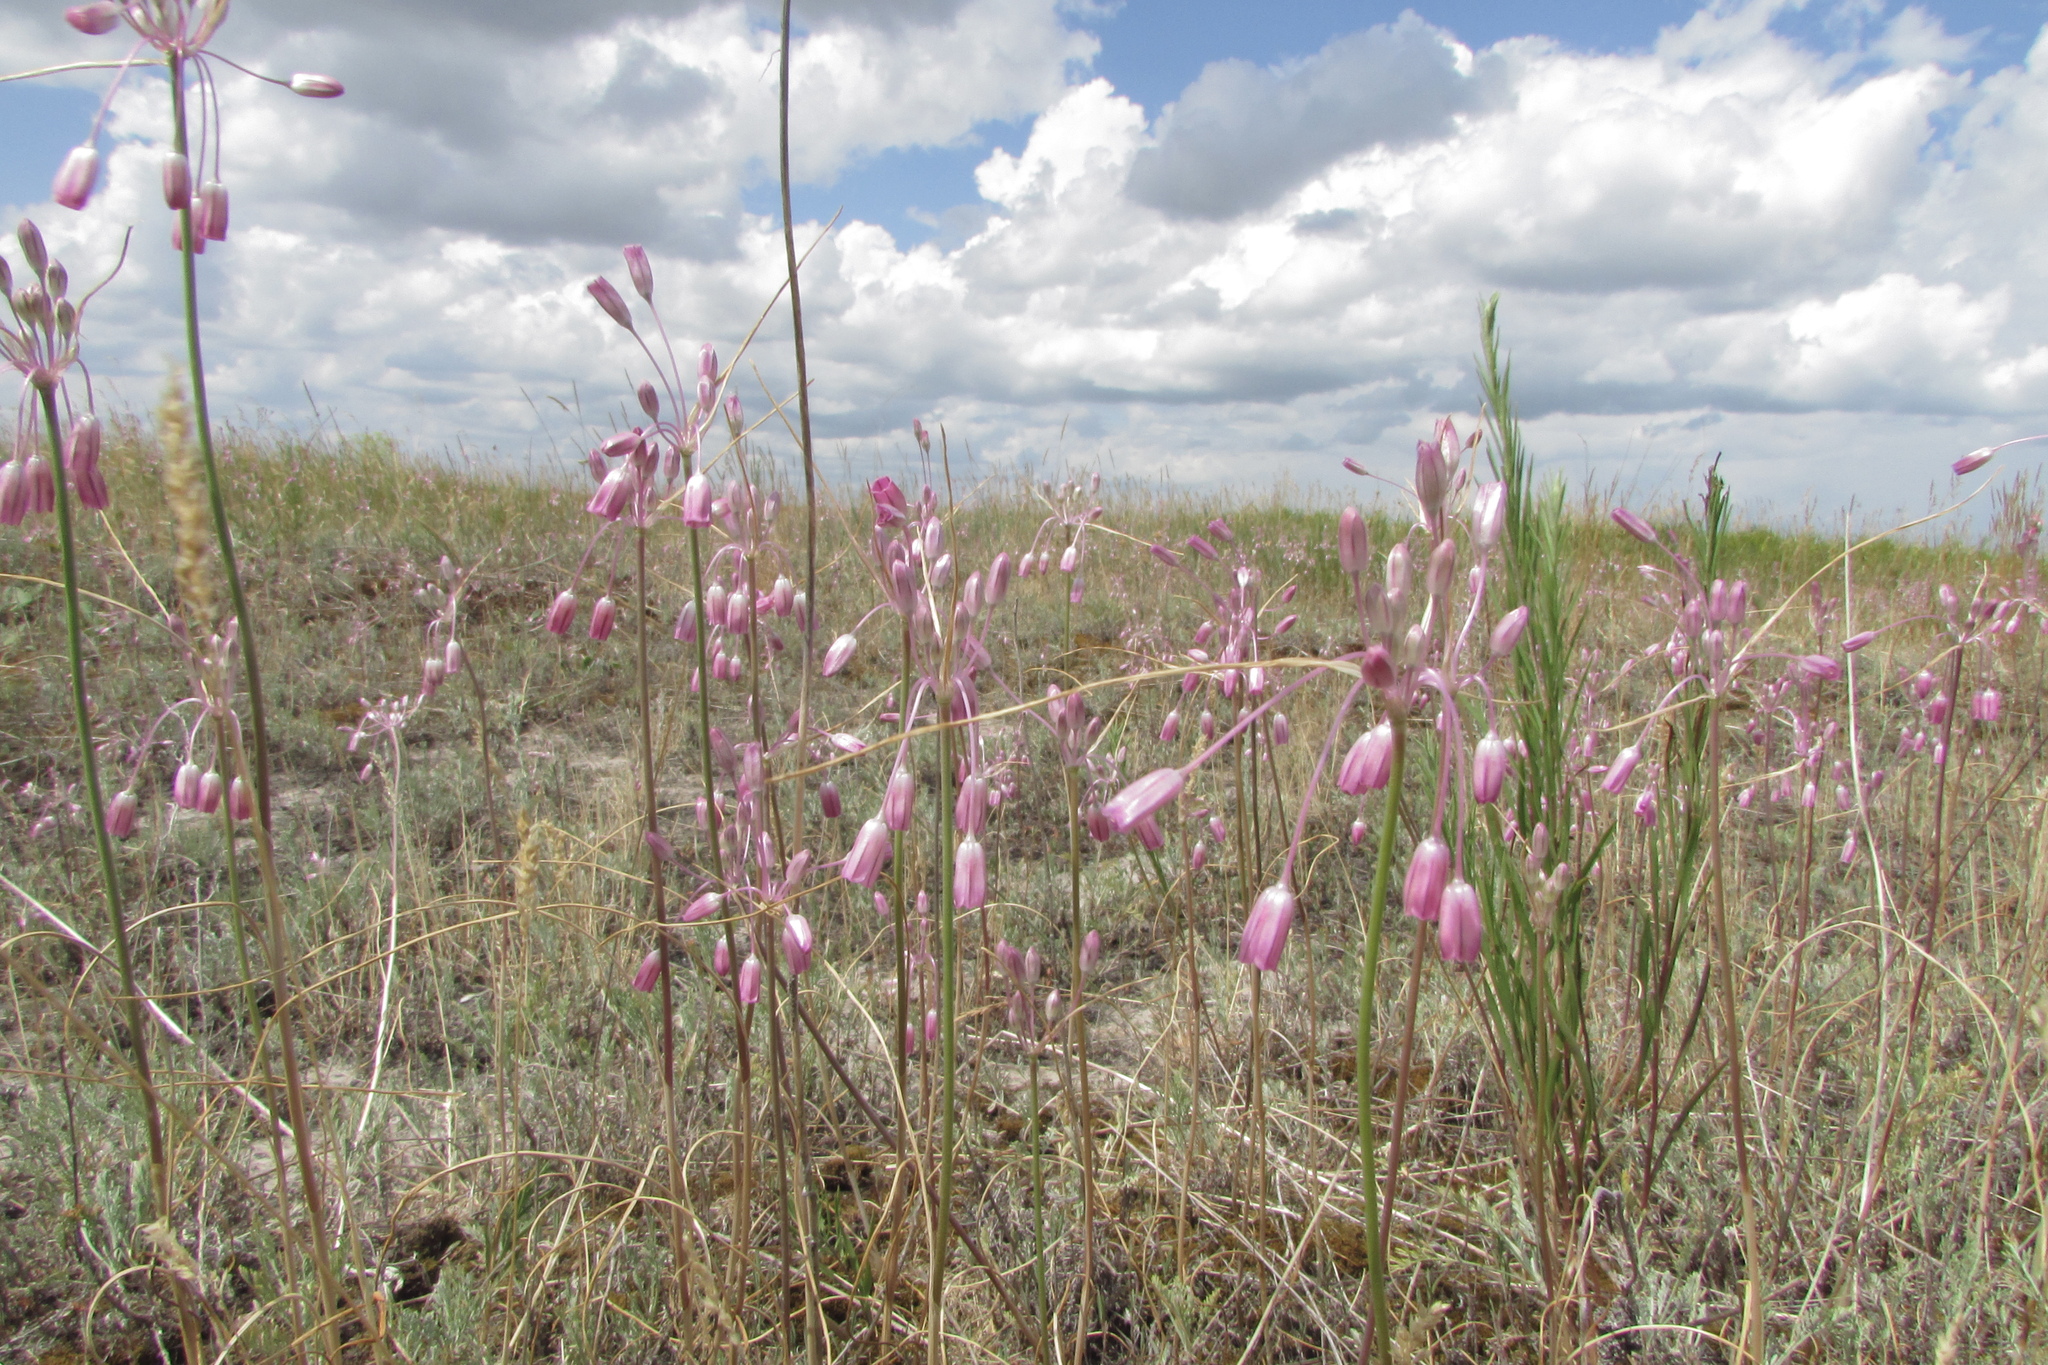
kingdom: Plantae
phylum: Tracheophyta
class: Liliopsida
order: Asparagales
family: Amaryllidaceae
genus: Allium
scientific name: Allium praescissum
